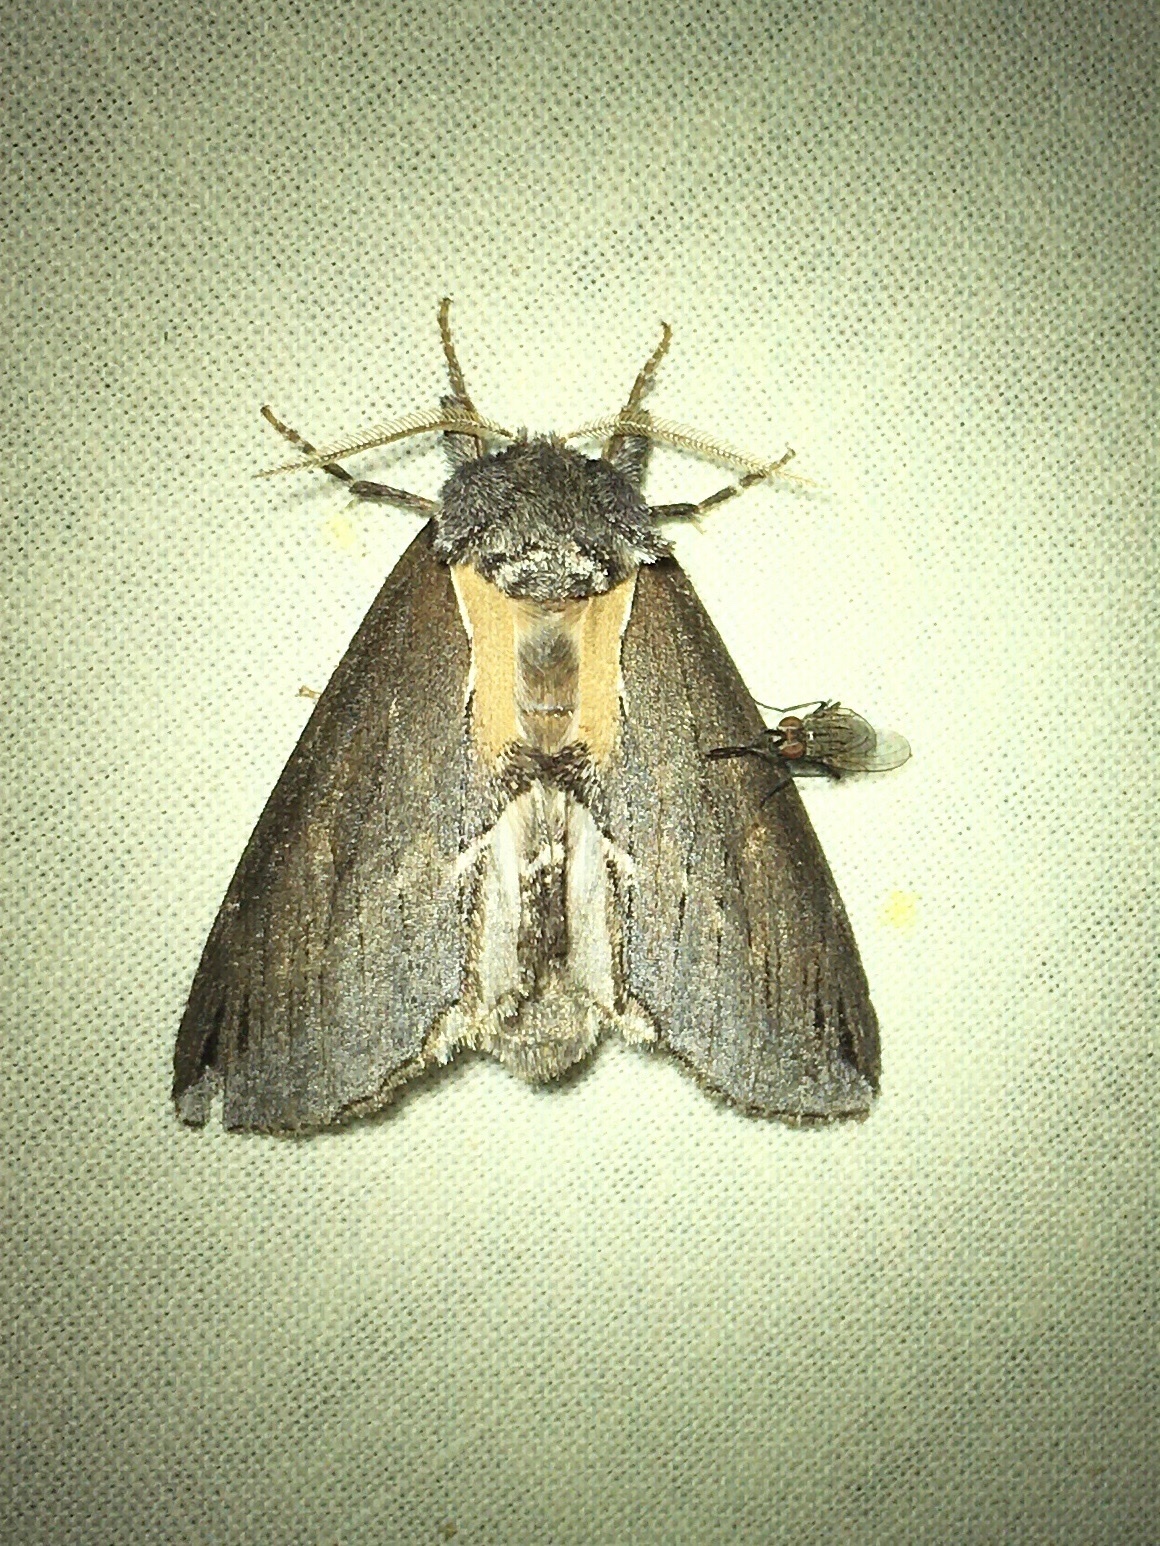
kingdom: Animalia
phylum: Arthropoda
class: Insecta
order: Lepidoptera
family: Notodontidae
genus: Pheosidea
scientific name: Pheosidea elegans
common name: Elegant prominent
